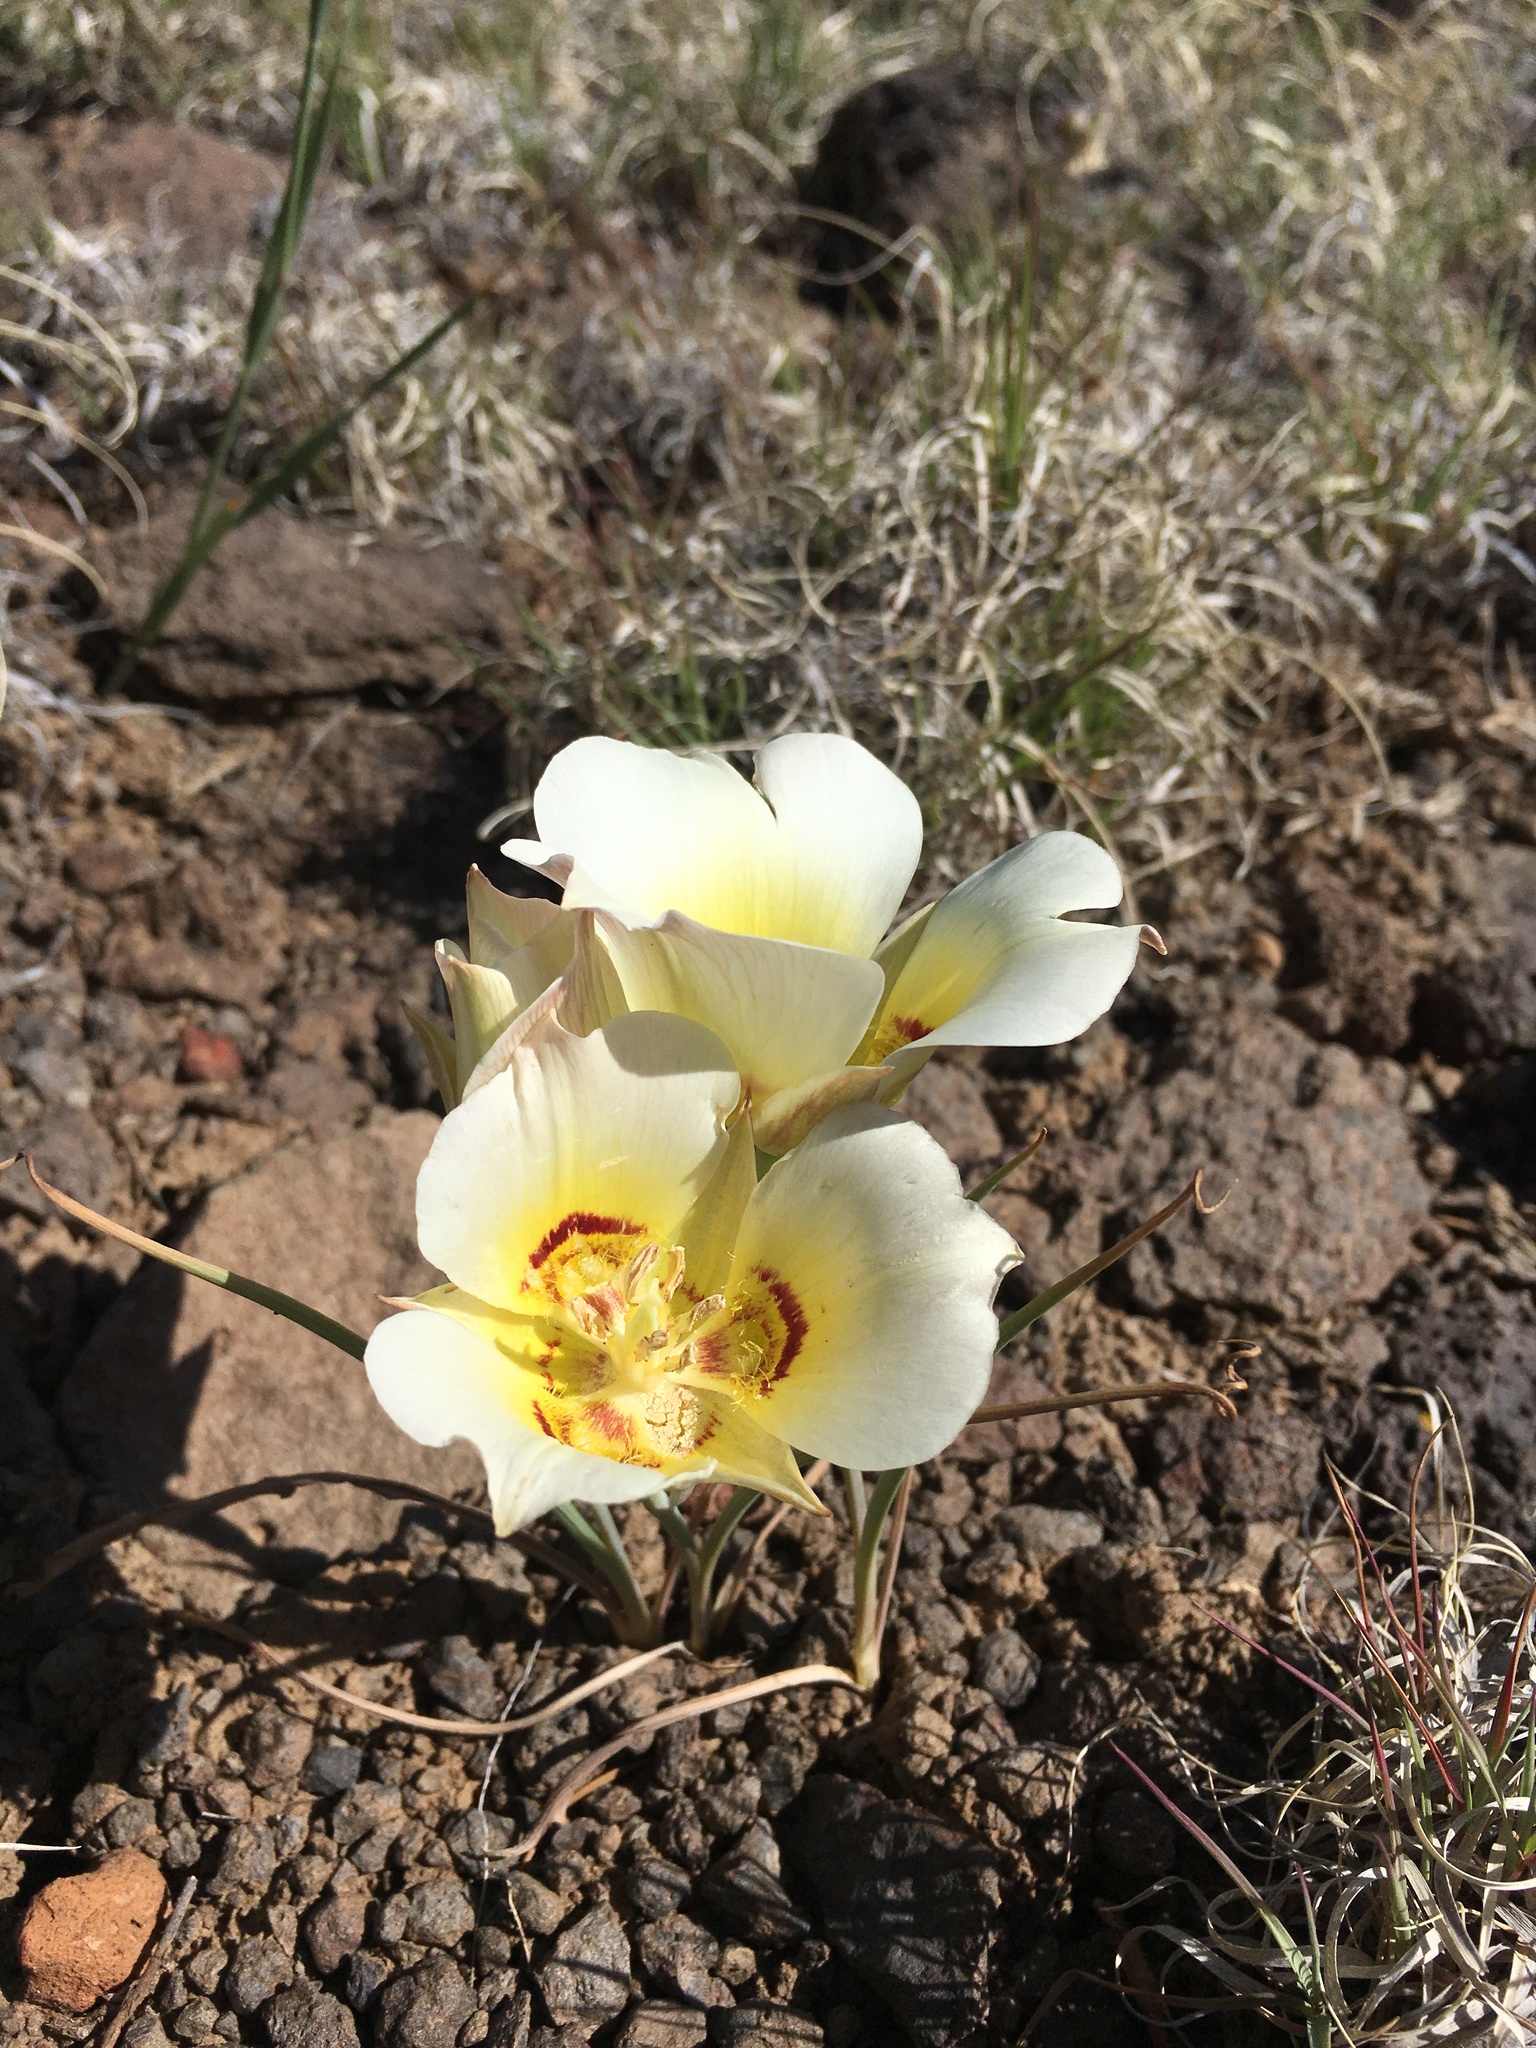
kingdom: Plantae
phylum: Tracheophyta
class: Liliopsida
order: Liliales
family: Liliaceae
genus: Calochortus
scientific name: Calochortus nuttallii
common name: Sego-lily
